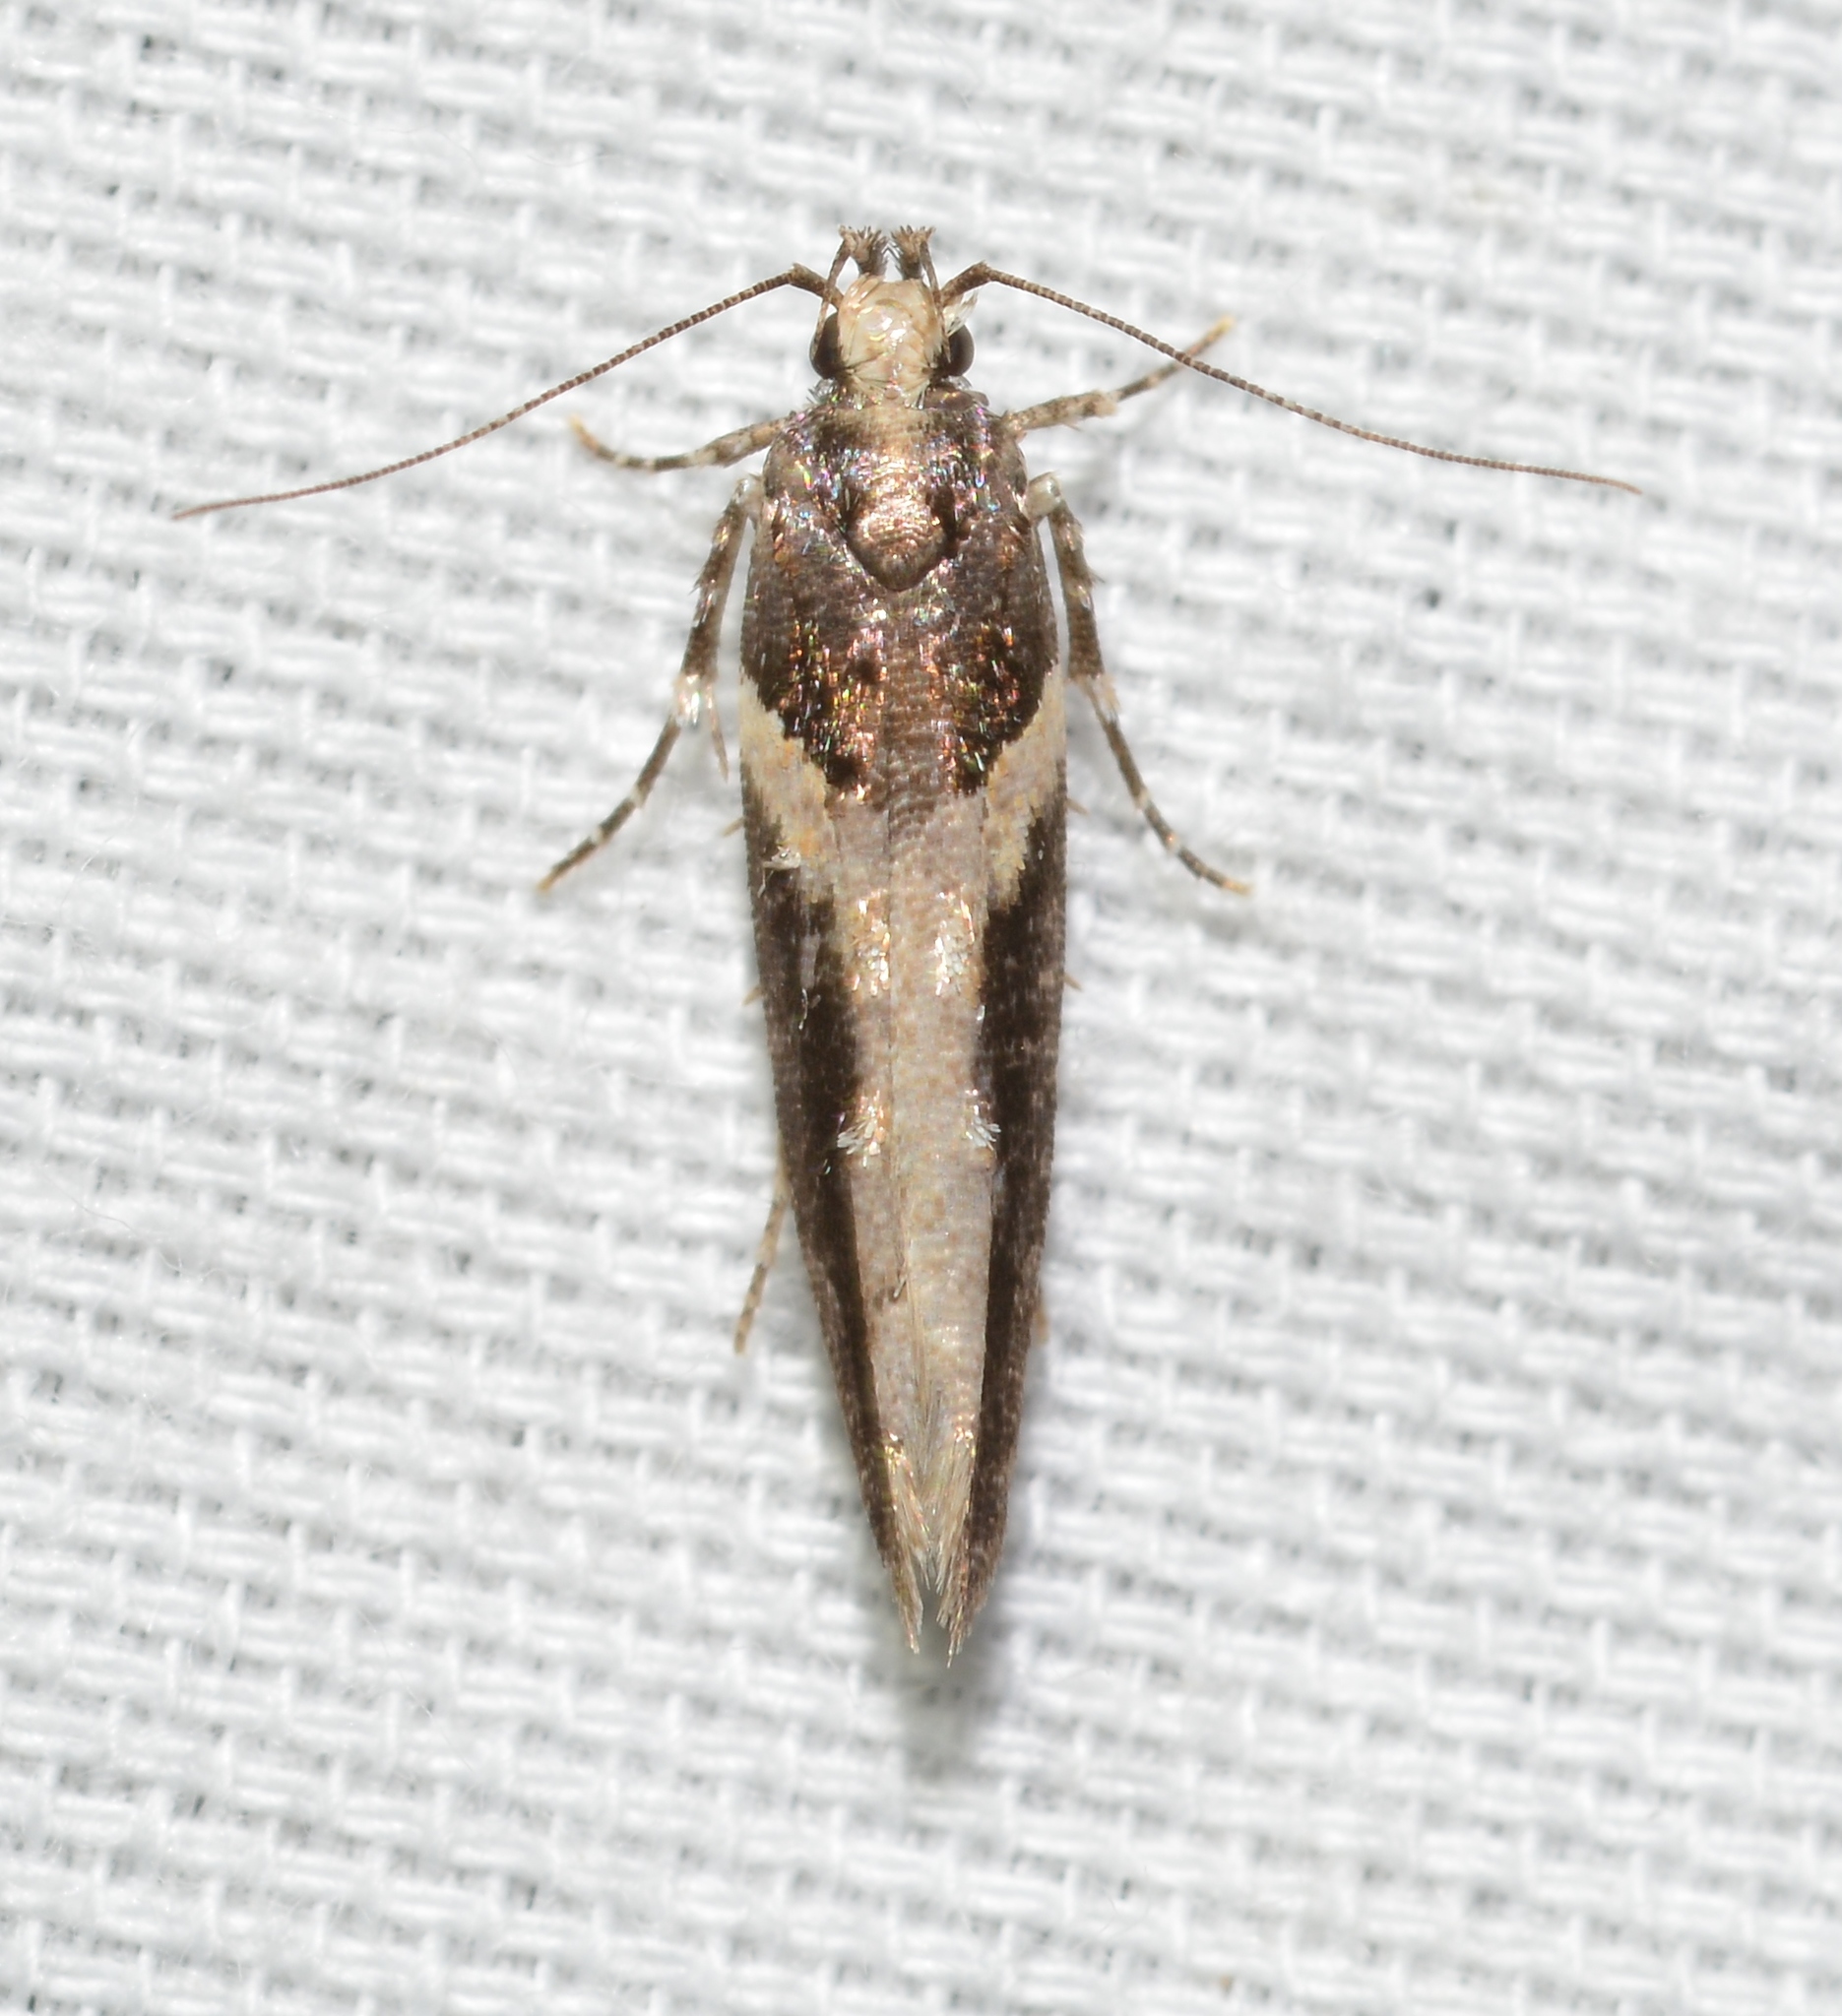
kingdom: Animalia
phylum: Arthropoda
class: Insecta
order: Lepidoptera
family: Gelechiidae
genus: Telphusa
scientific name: Telphusa longifasciella
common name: Y-backed telphusa
